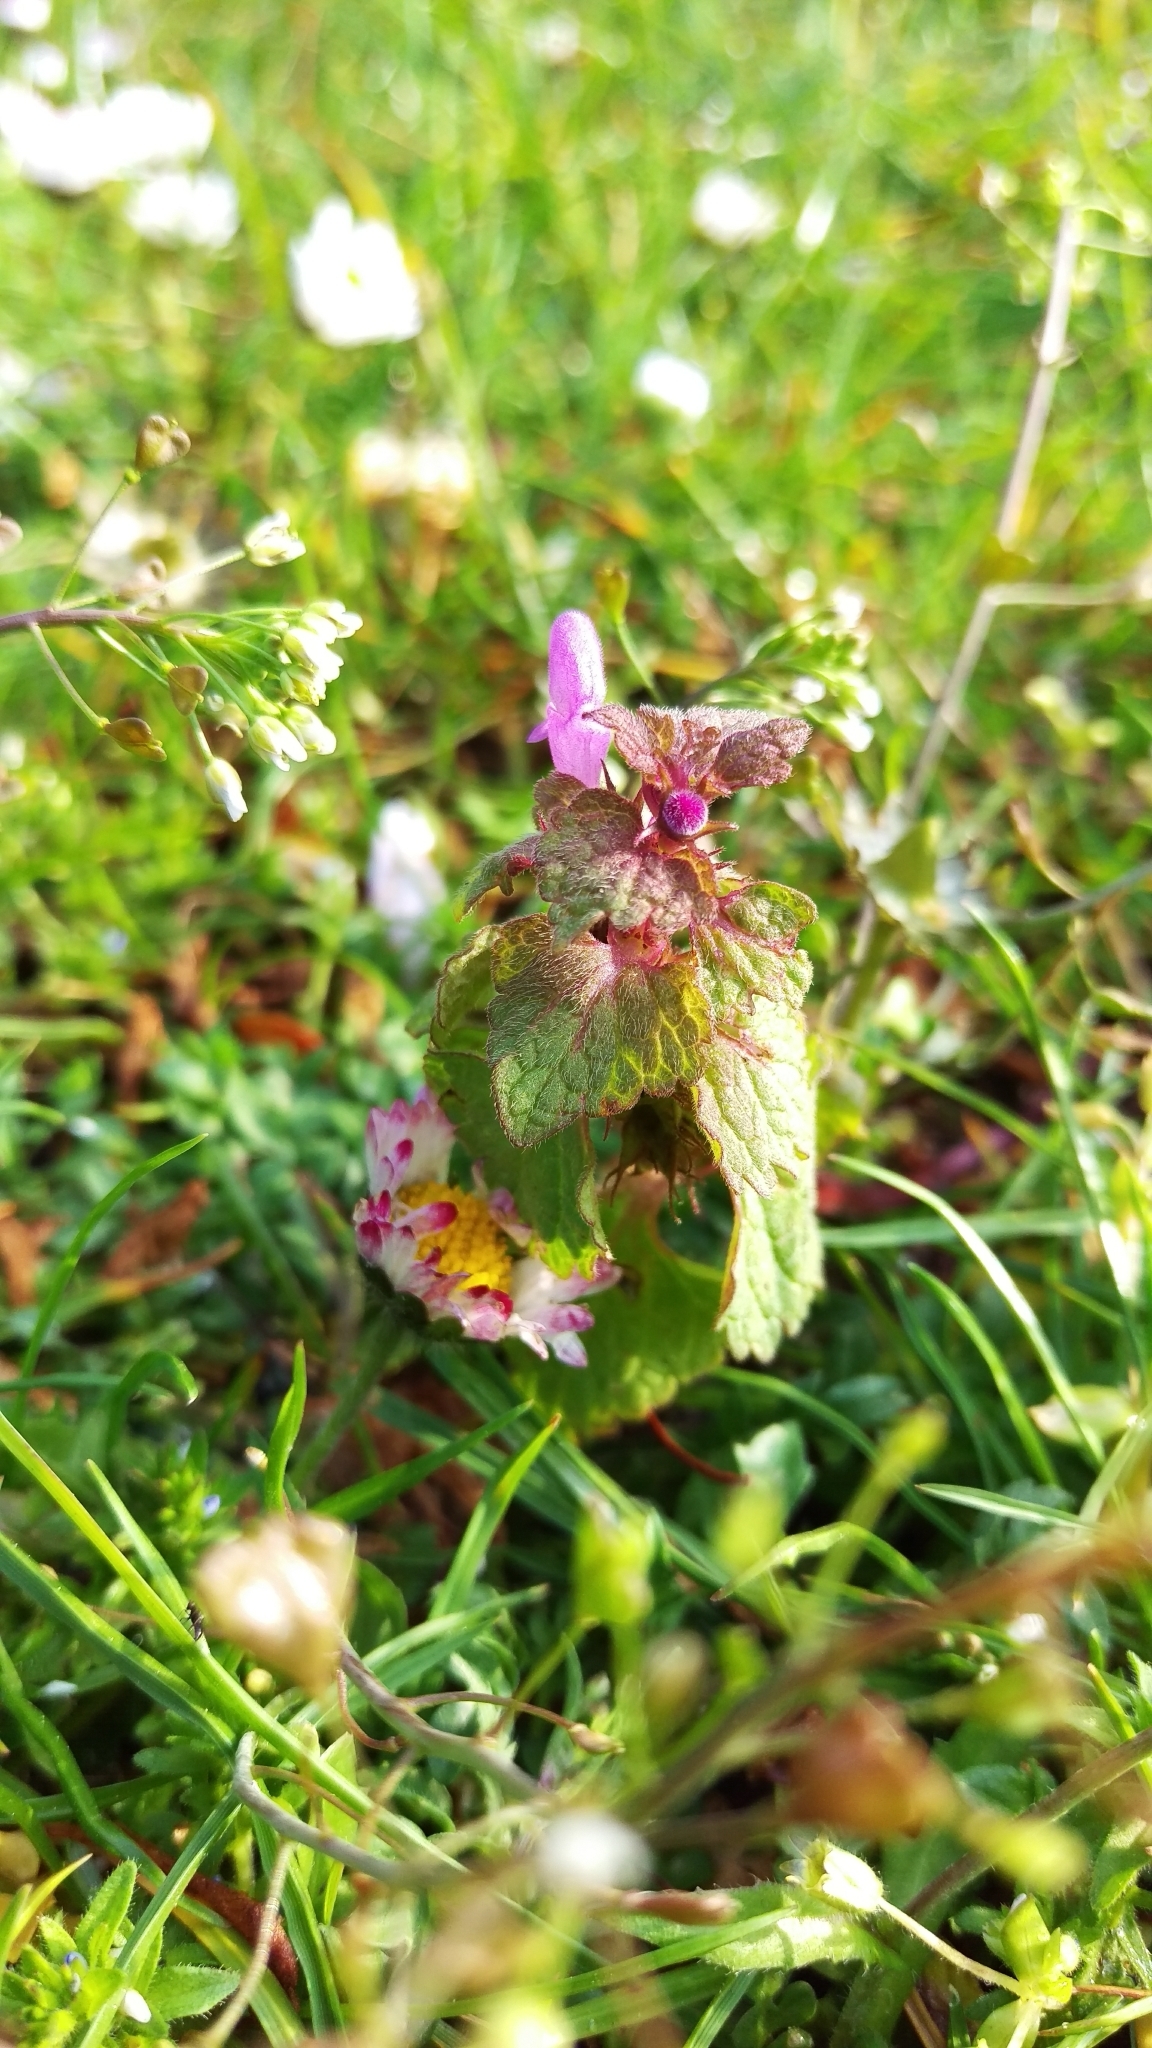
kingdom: Plantae
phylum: Tracheophyta
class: Magnoliopsida
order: Lamiales
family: Lamiaceae
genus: Lamium
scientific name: Lamium purpureum
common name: Red dead-nettle
